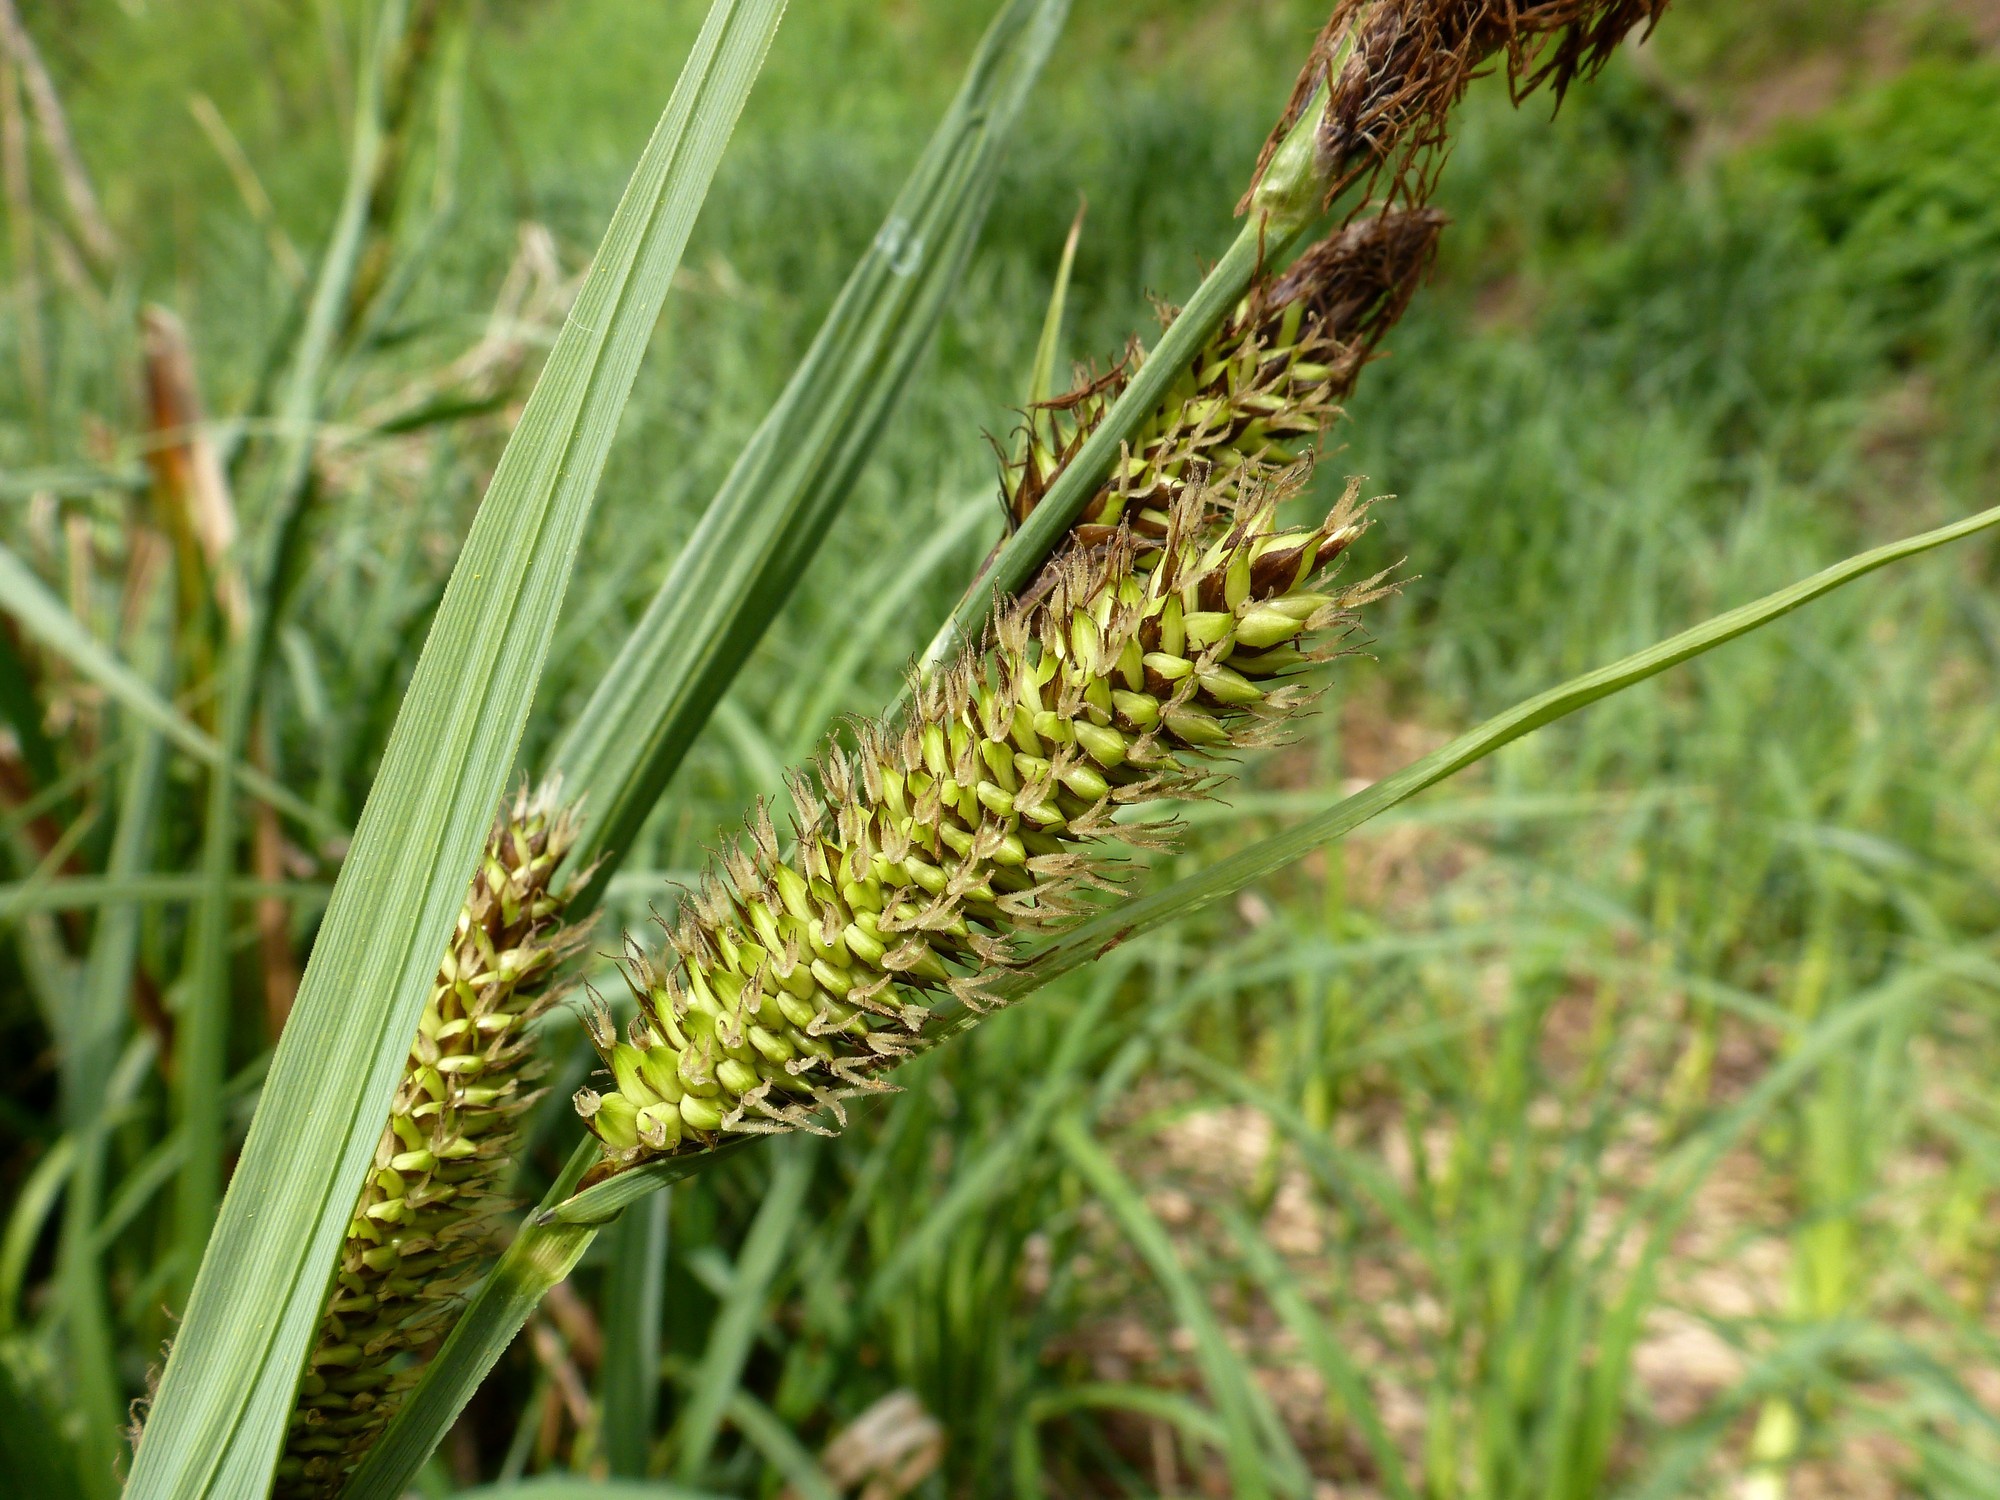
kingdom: Plantae
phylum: Tracheophyta
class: Liliopsida
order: Poales
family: Cyperaceae
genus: Carex
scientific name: Carex riparia
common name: Greater pond-sedge
